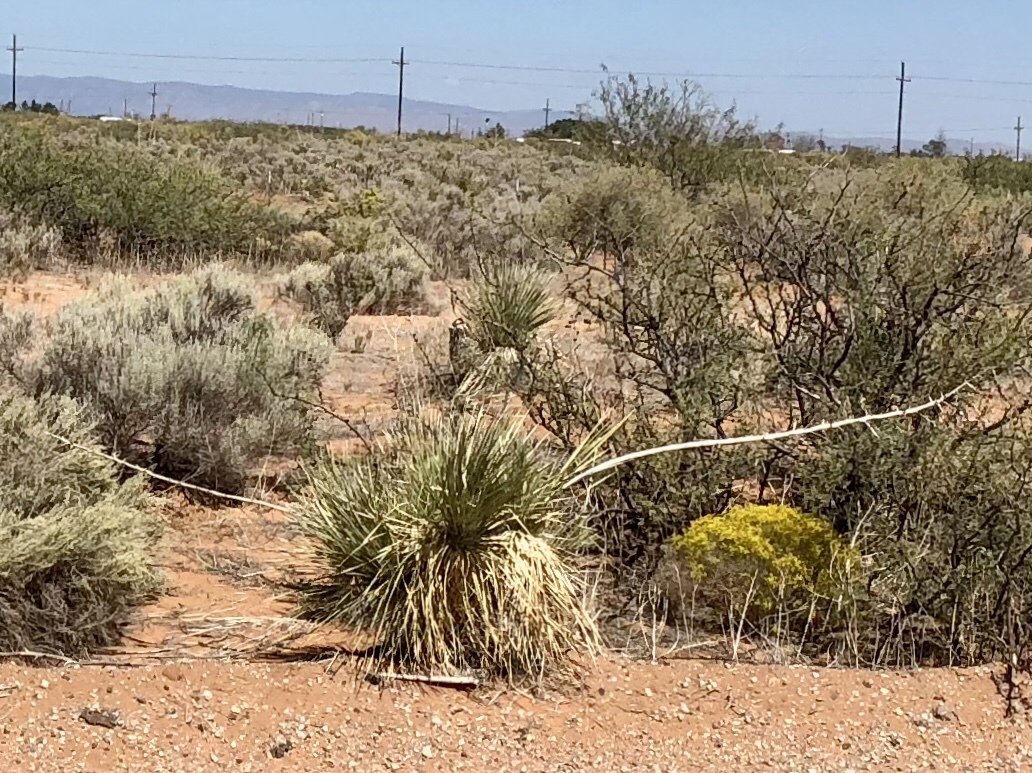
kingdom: Plantae
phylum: Tracheophyta
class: Liliopsida
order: Asparagales
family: Asparagaceae
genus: Yucca
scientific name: Yucca elata
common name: Palmella
